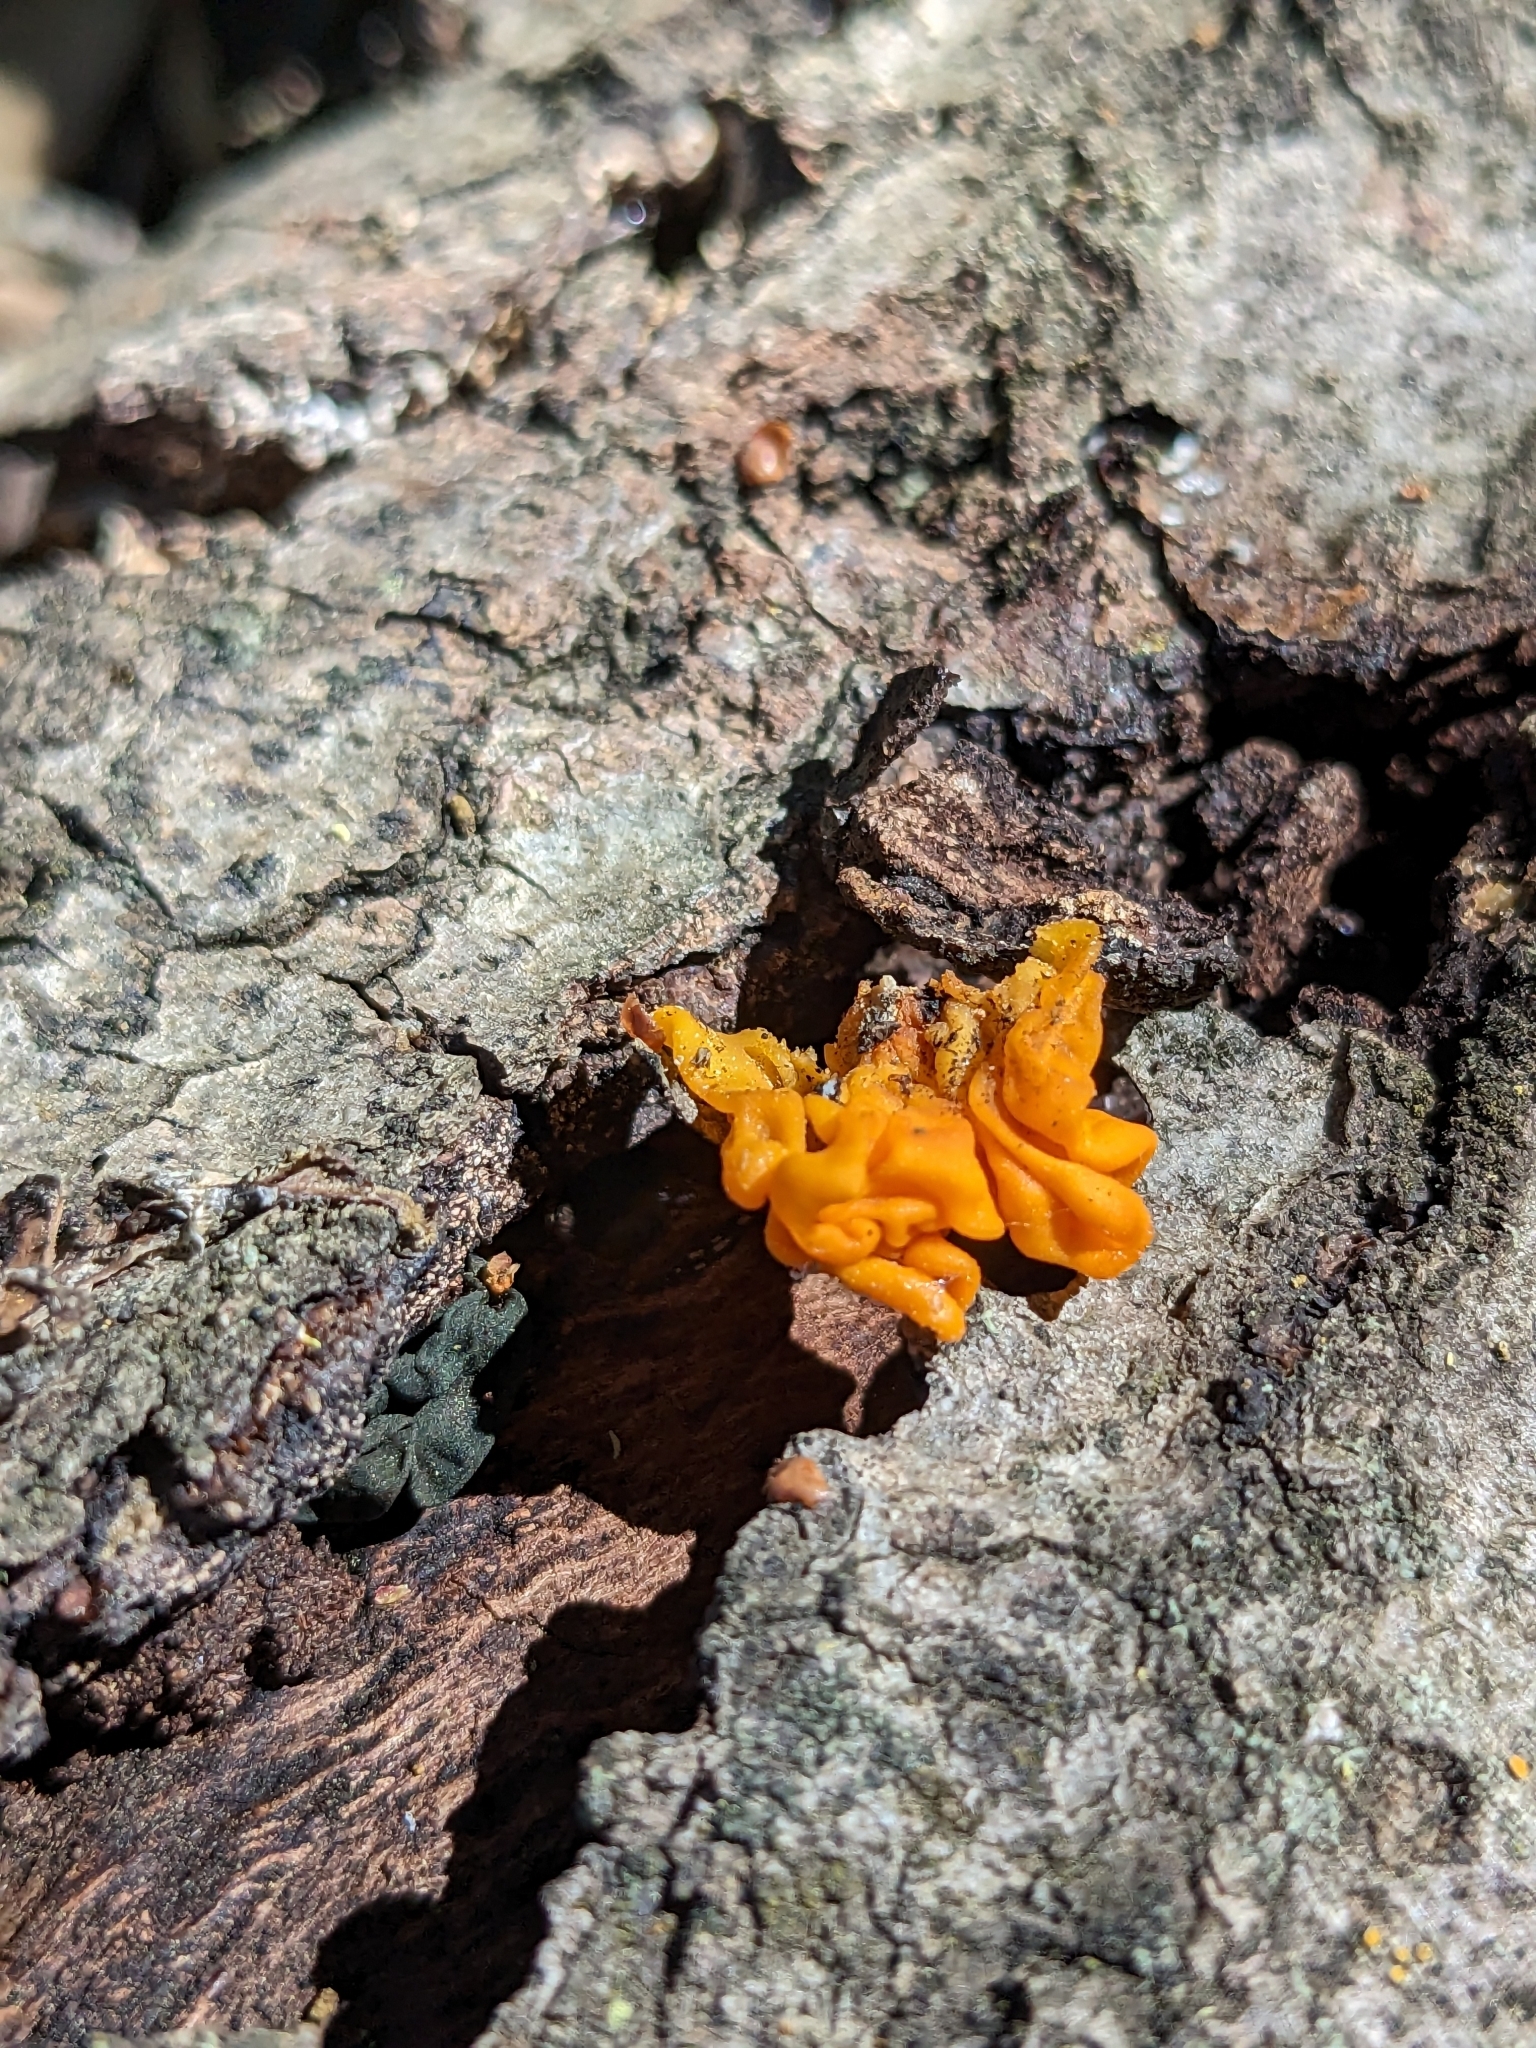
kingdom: Fungi
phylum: Basidiomycota
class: Tremellomycetes
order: Tremellales
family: Naemateliaceae
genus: Naematelia
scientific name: Naematelia aurantia
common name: Golden ear
